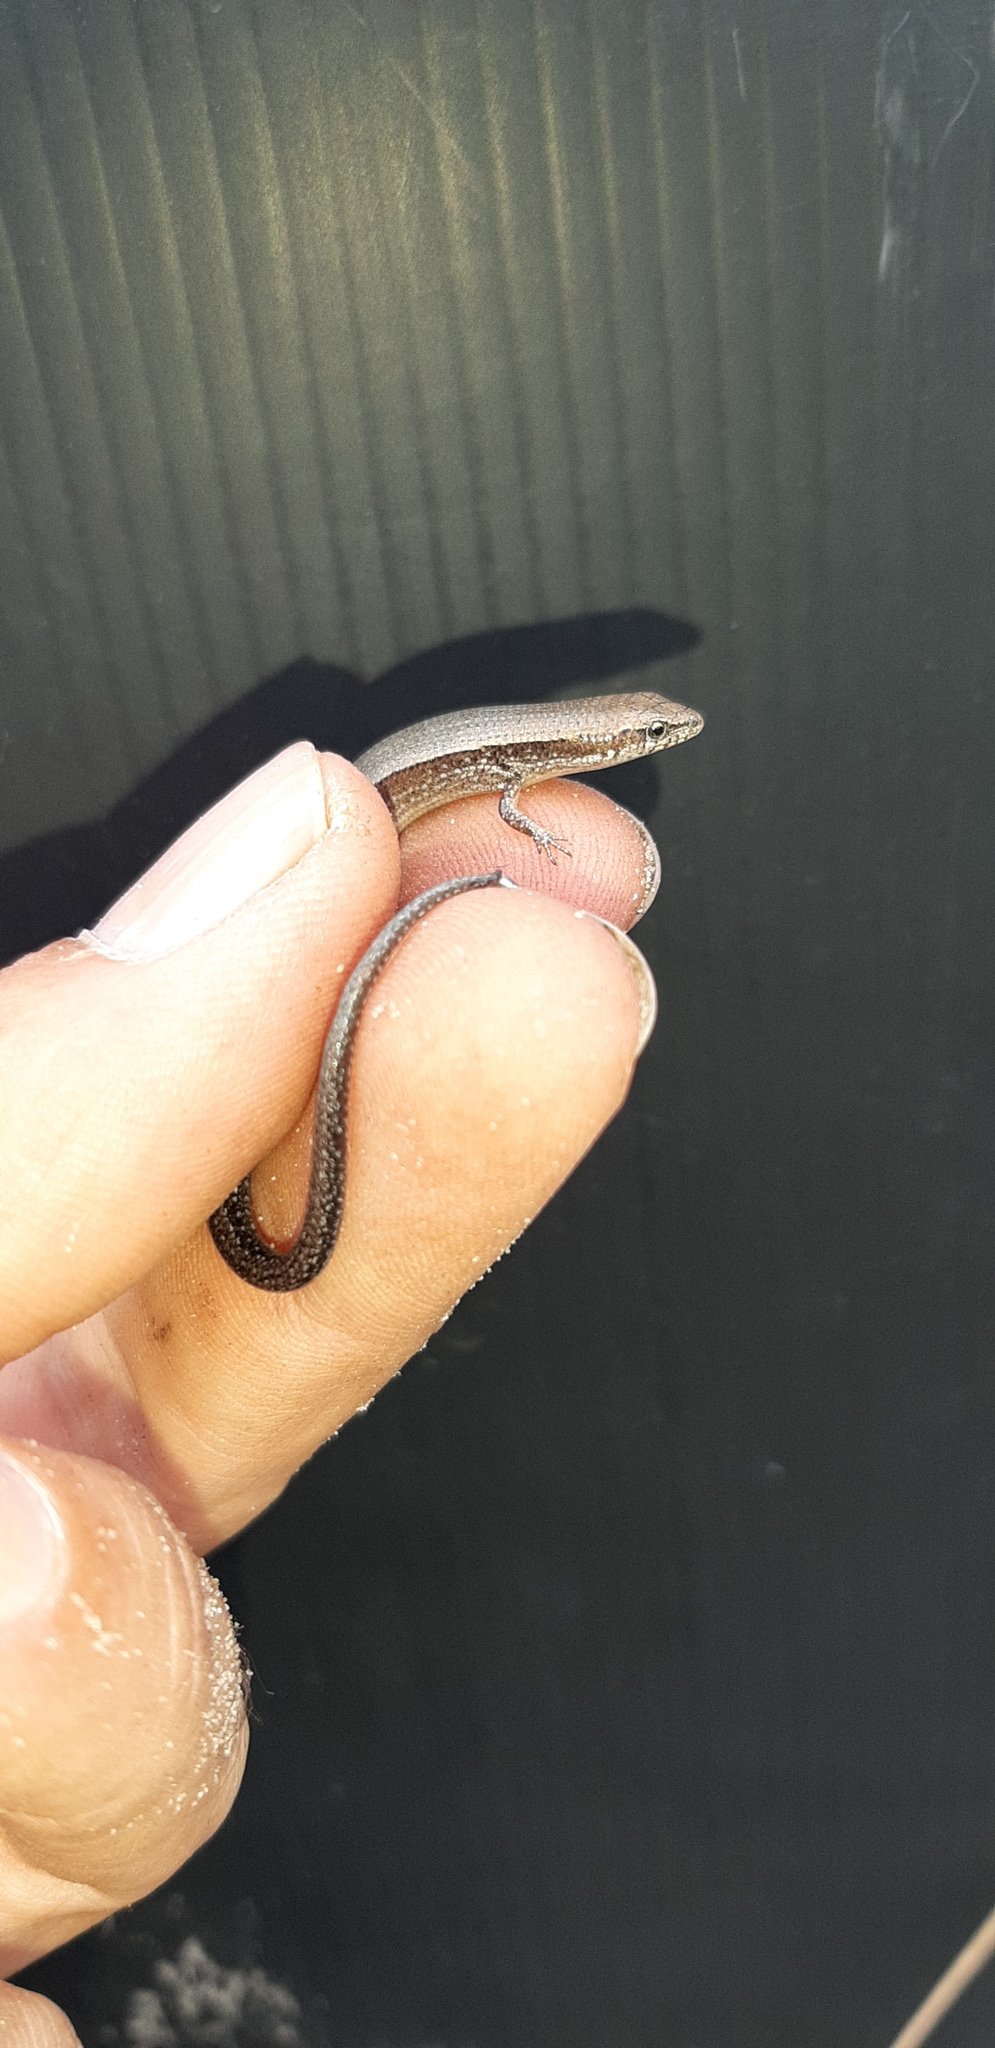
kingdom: Animalia
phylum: Chordata
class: Squamata
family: Scincidae
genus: Panaspis
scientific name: Panaspis wahlbergii
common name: Angolan snake-eyed skink
